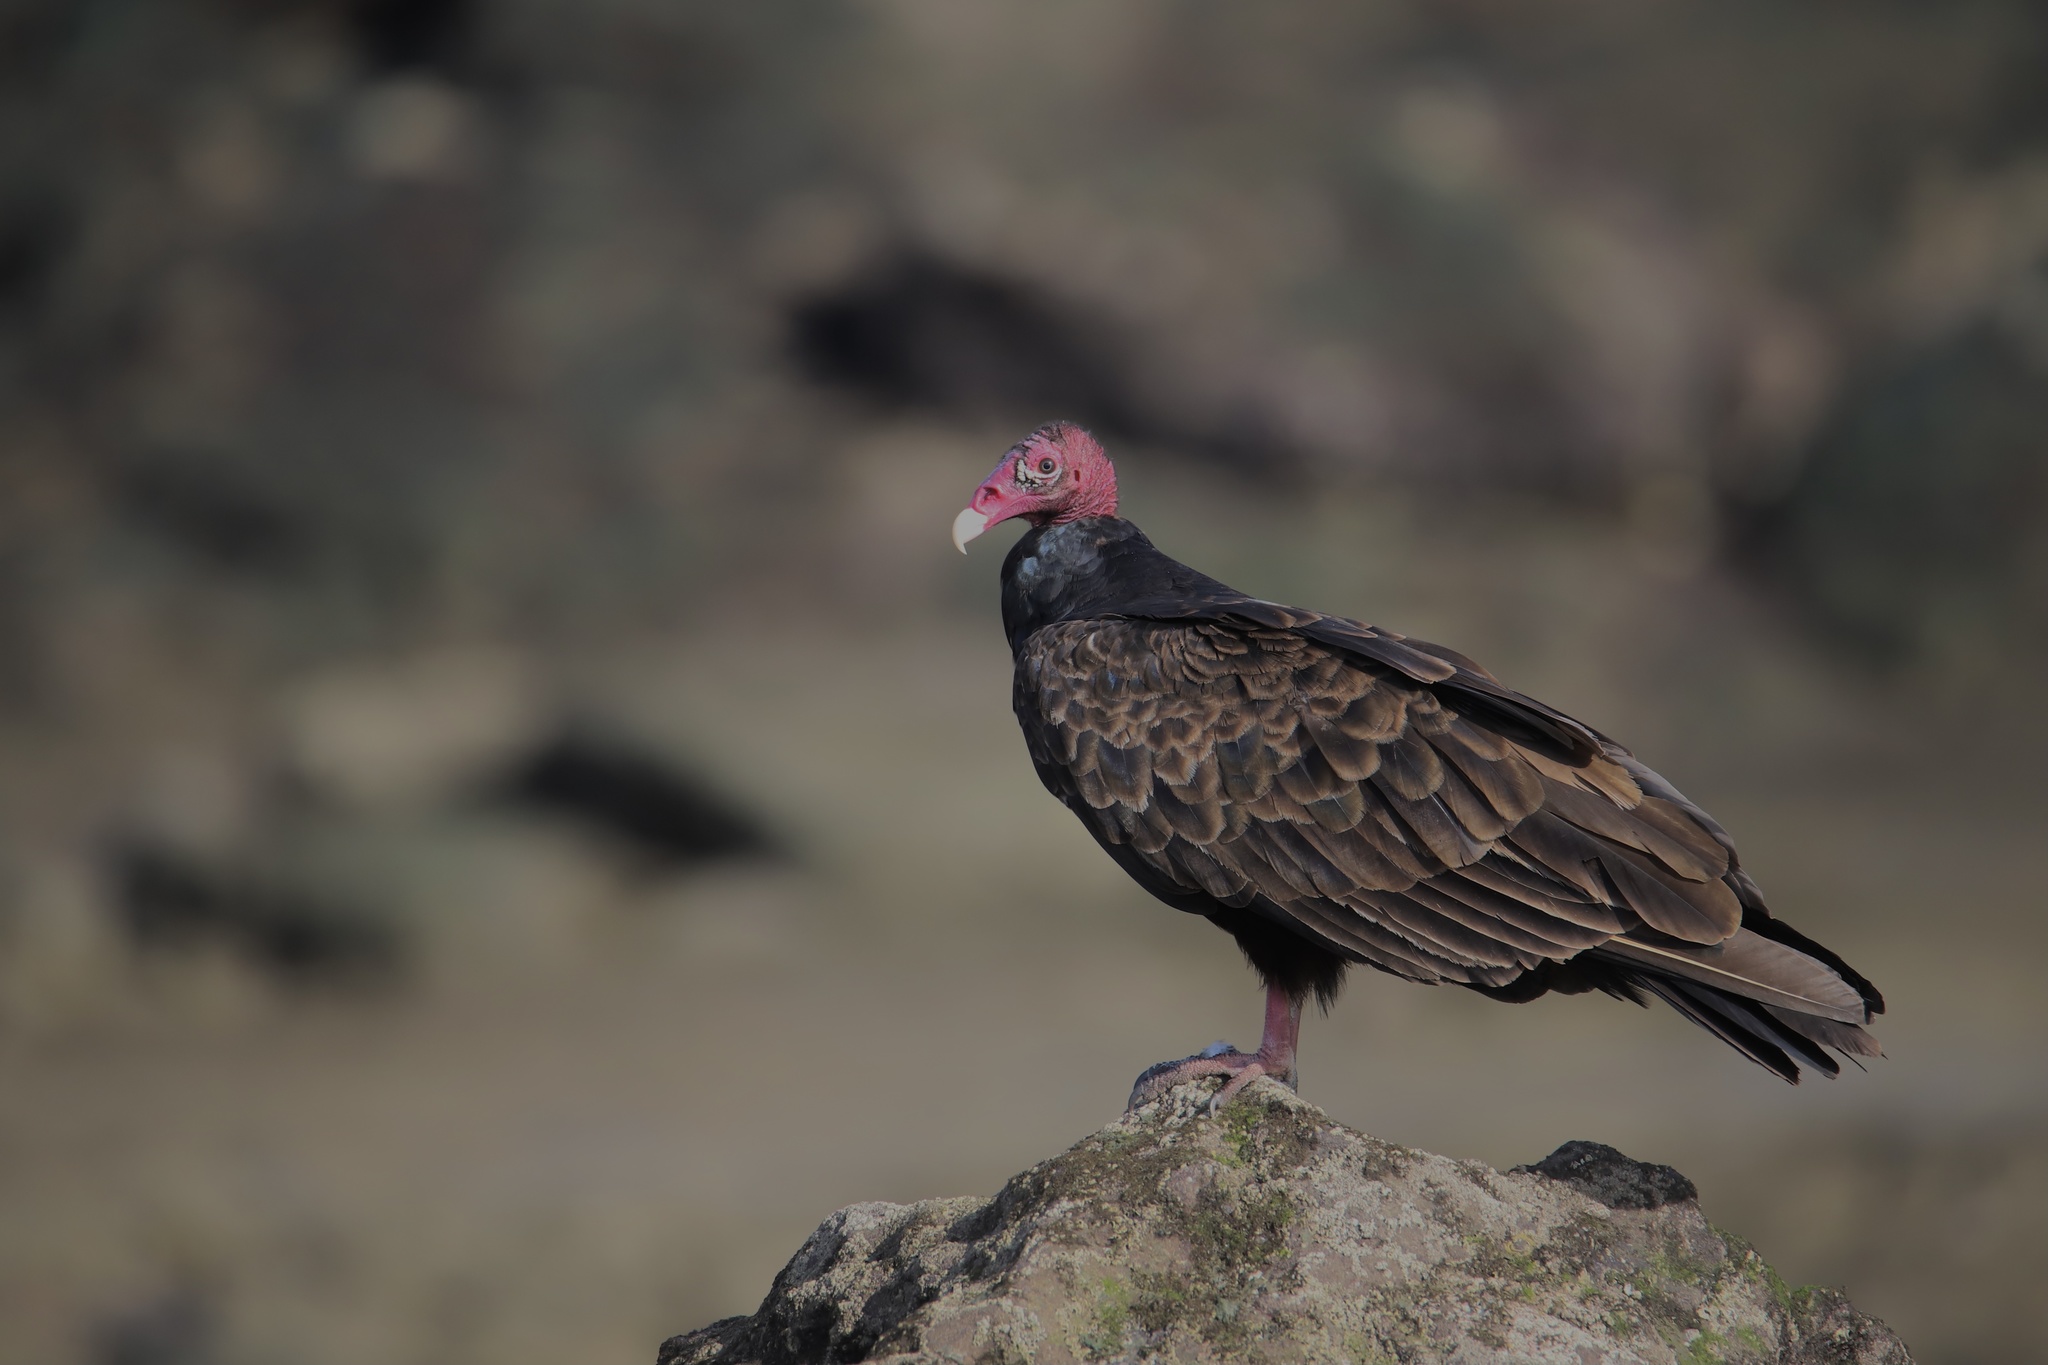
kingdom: Animalia
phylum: Chordata
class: Aves
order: Accipitriformes
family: Cathartidae
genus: Cathartes
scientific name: Cathartes aura
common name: Turkey vulture
